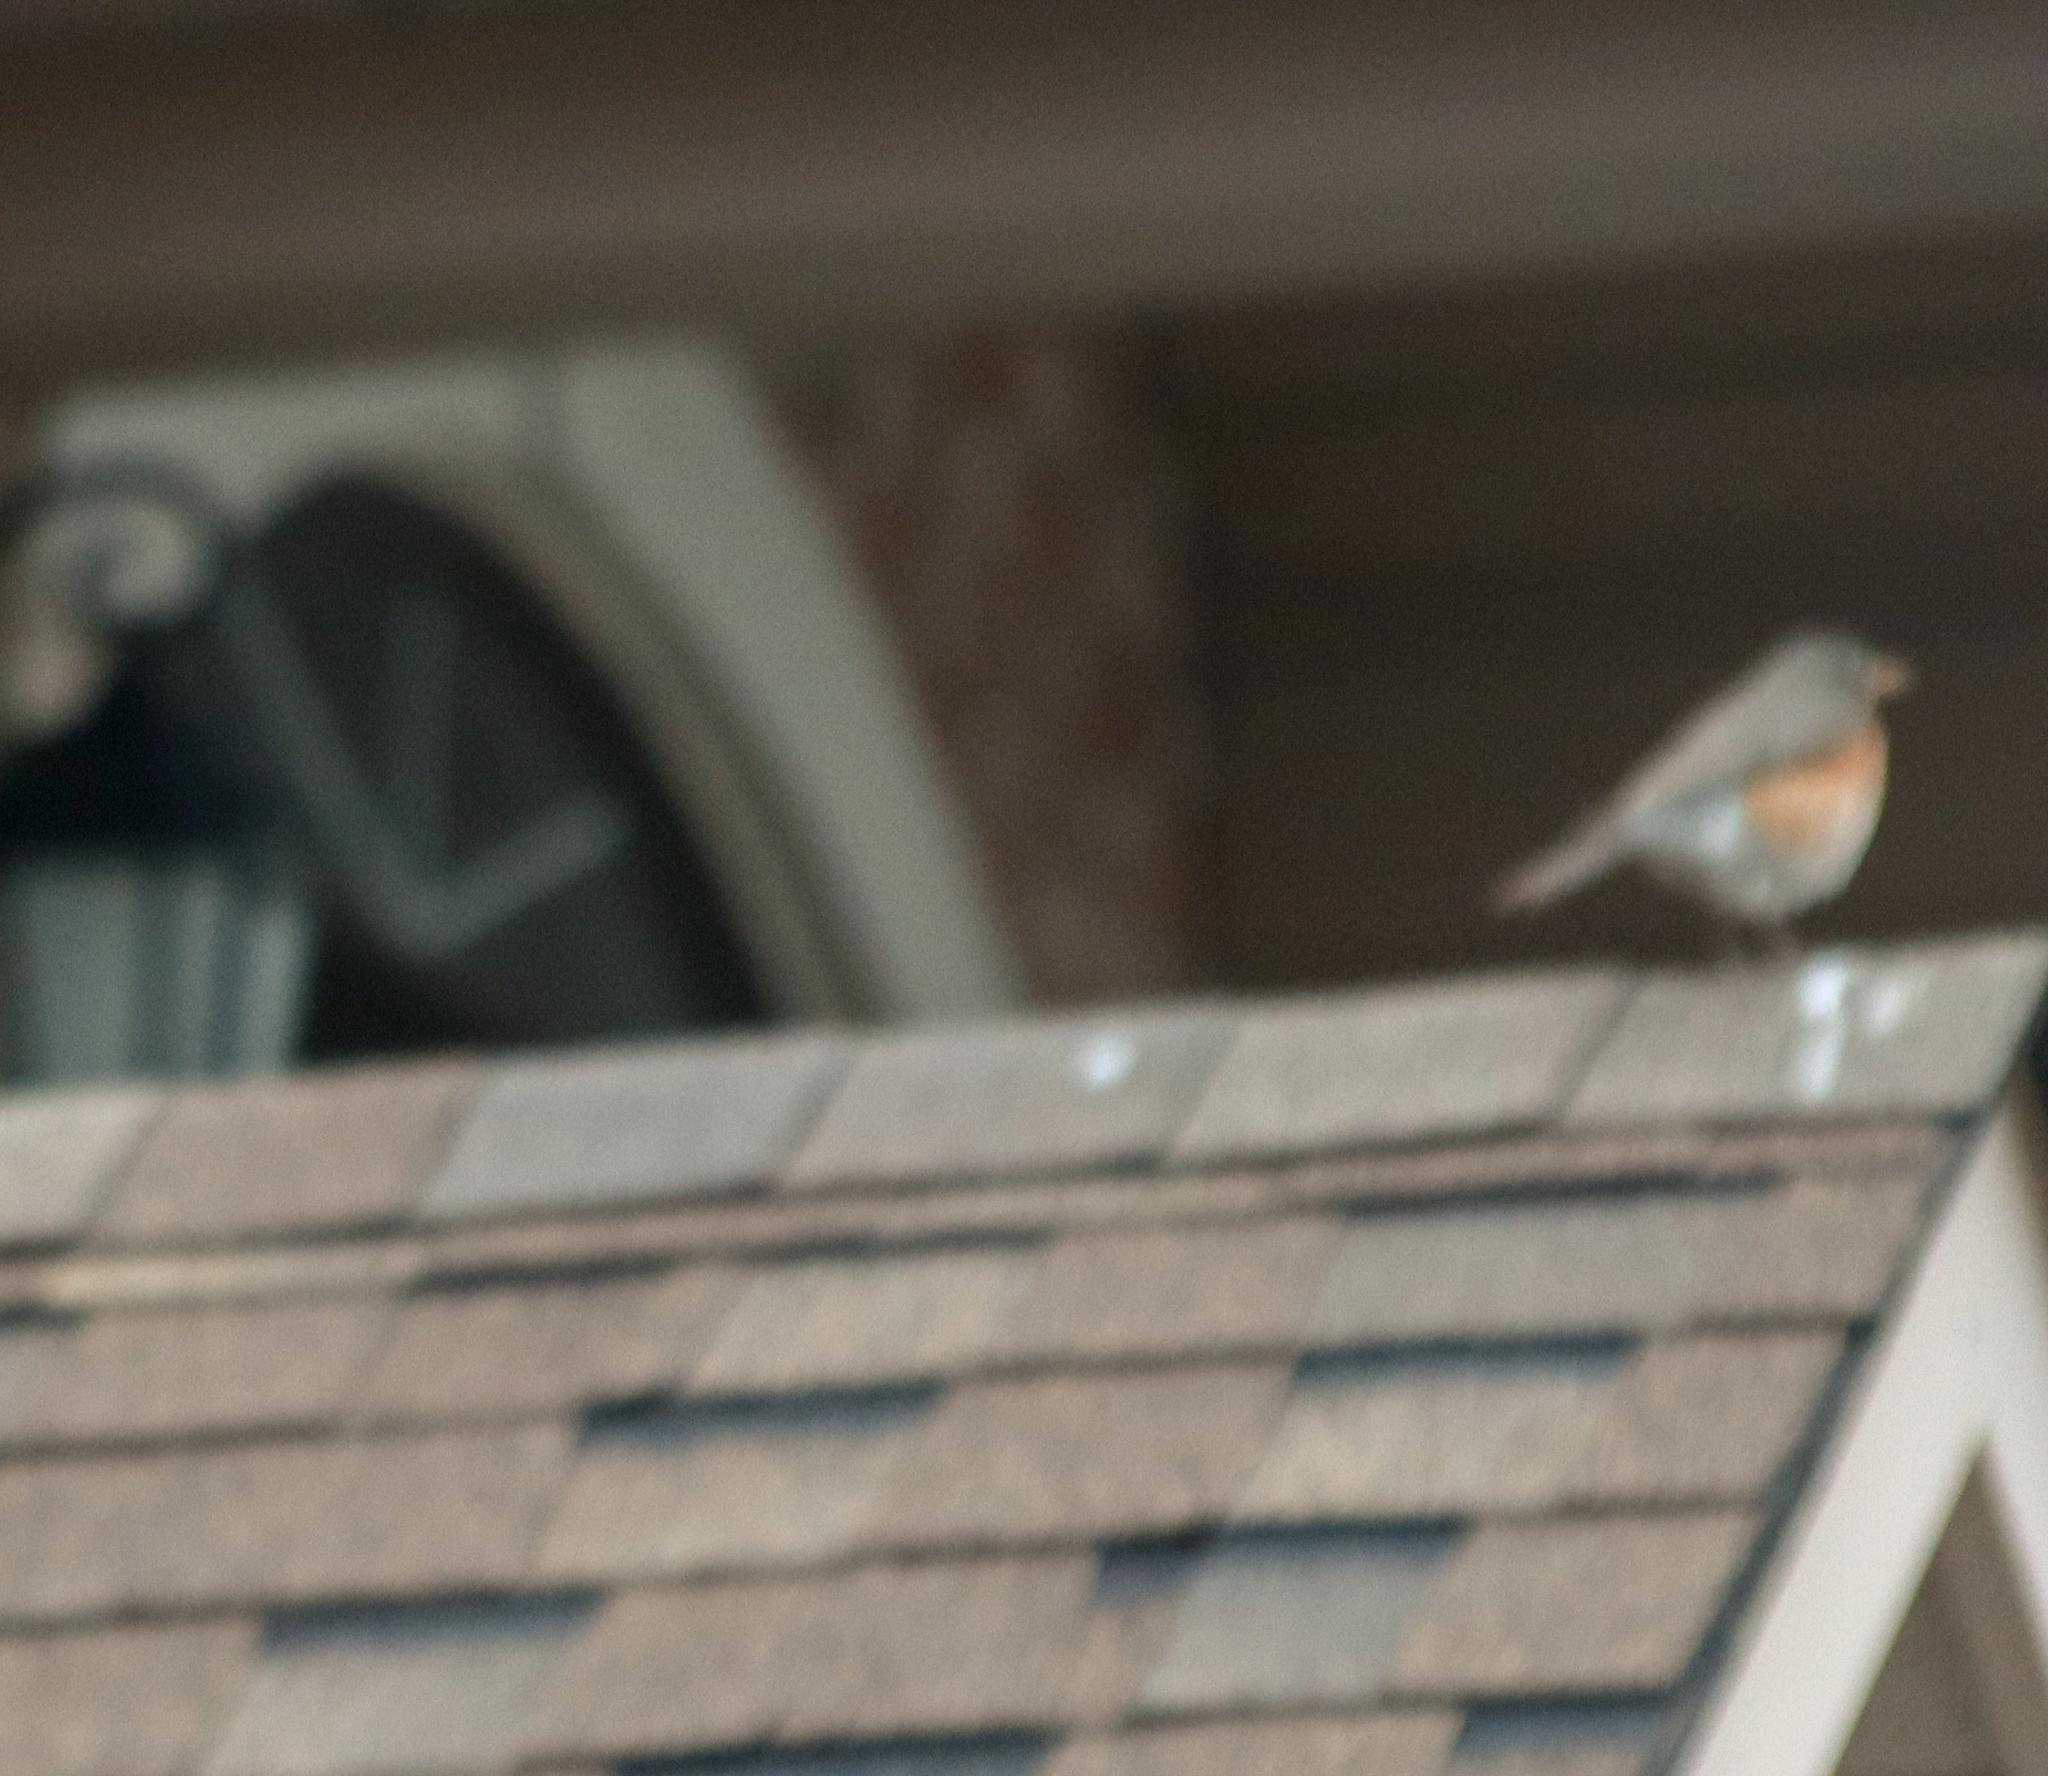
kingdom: Animalia
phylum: Chordata
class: Aves
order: Passeriformes
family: Turdidae
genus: Turdus
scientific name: Turdus migratorius
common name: American robin
